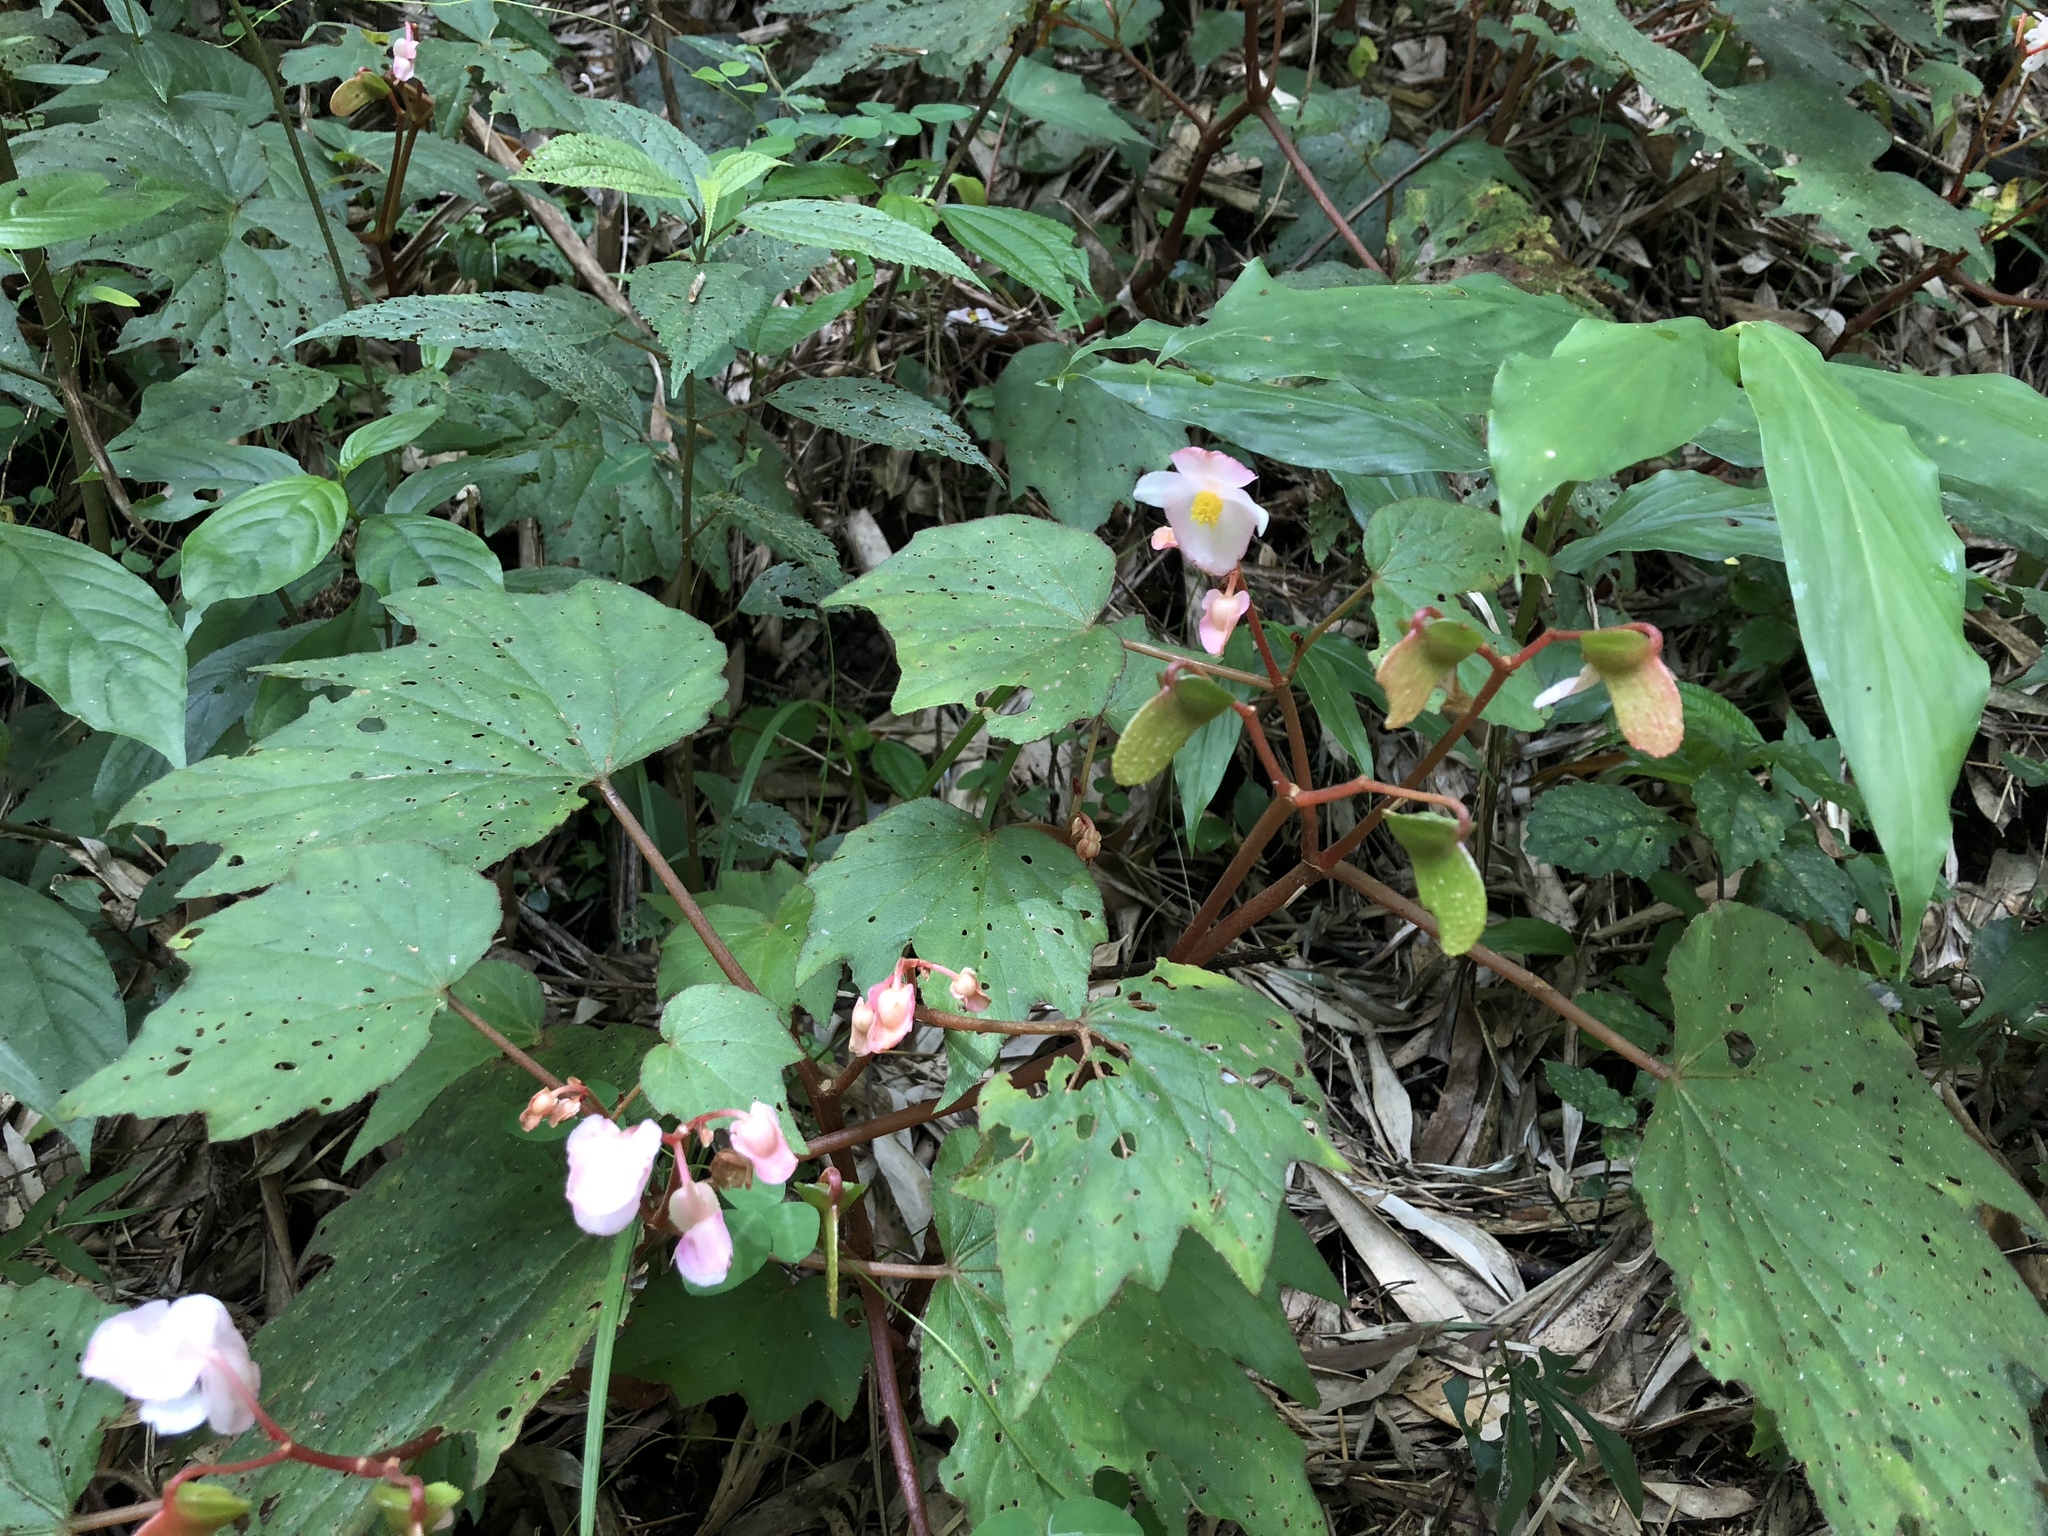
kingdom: Plantae
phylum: Tracheophyta
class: Magnoliopsida
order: Cucurbitales
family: Begoniaceae
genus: Begonia
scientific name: Begonia palmata
